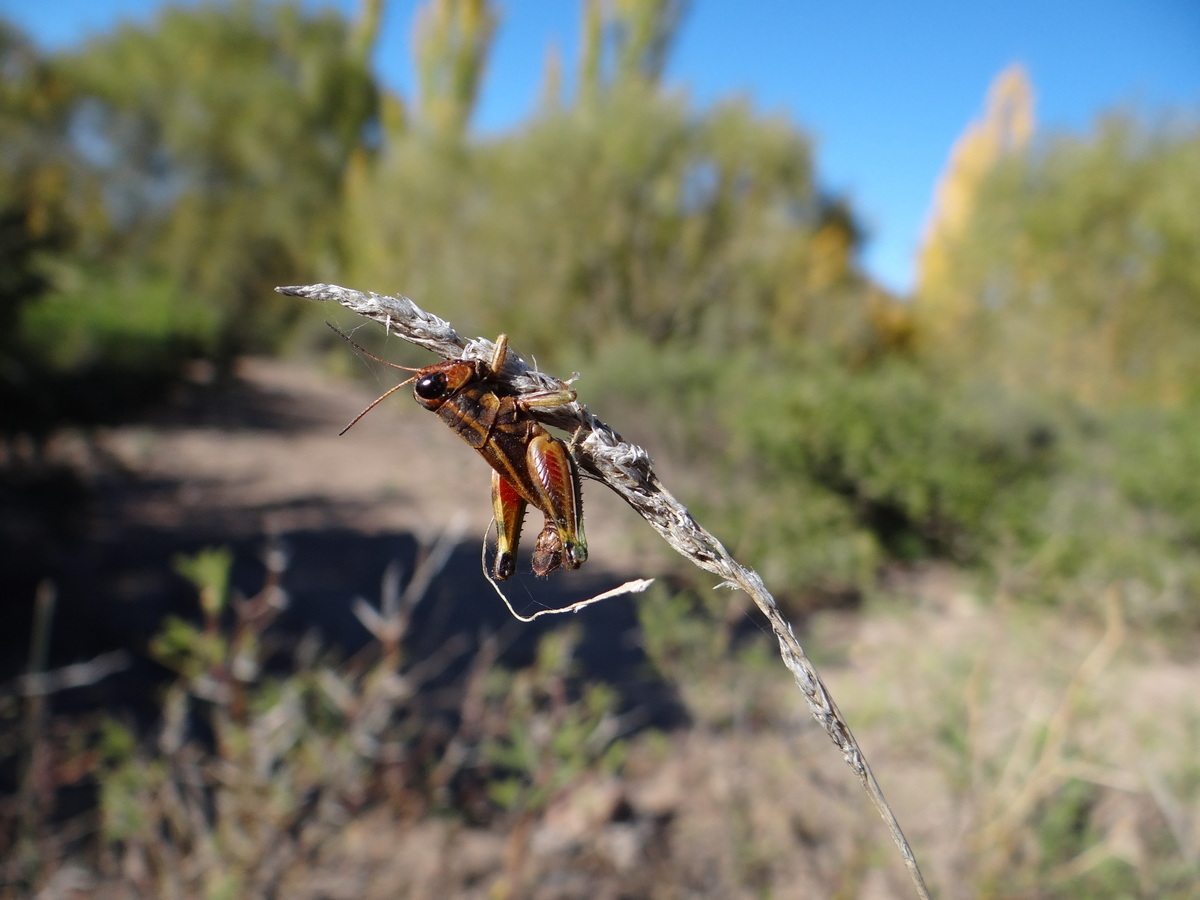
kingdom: Animalia
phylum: Arthropoda
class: Insecta
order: Orthoptera
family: Acrididae
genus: Dichroplus
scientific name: Dichroplus vittatus
